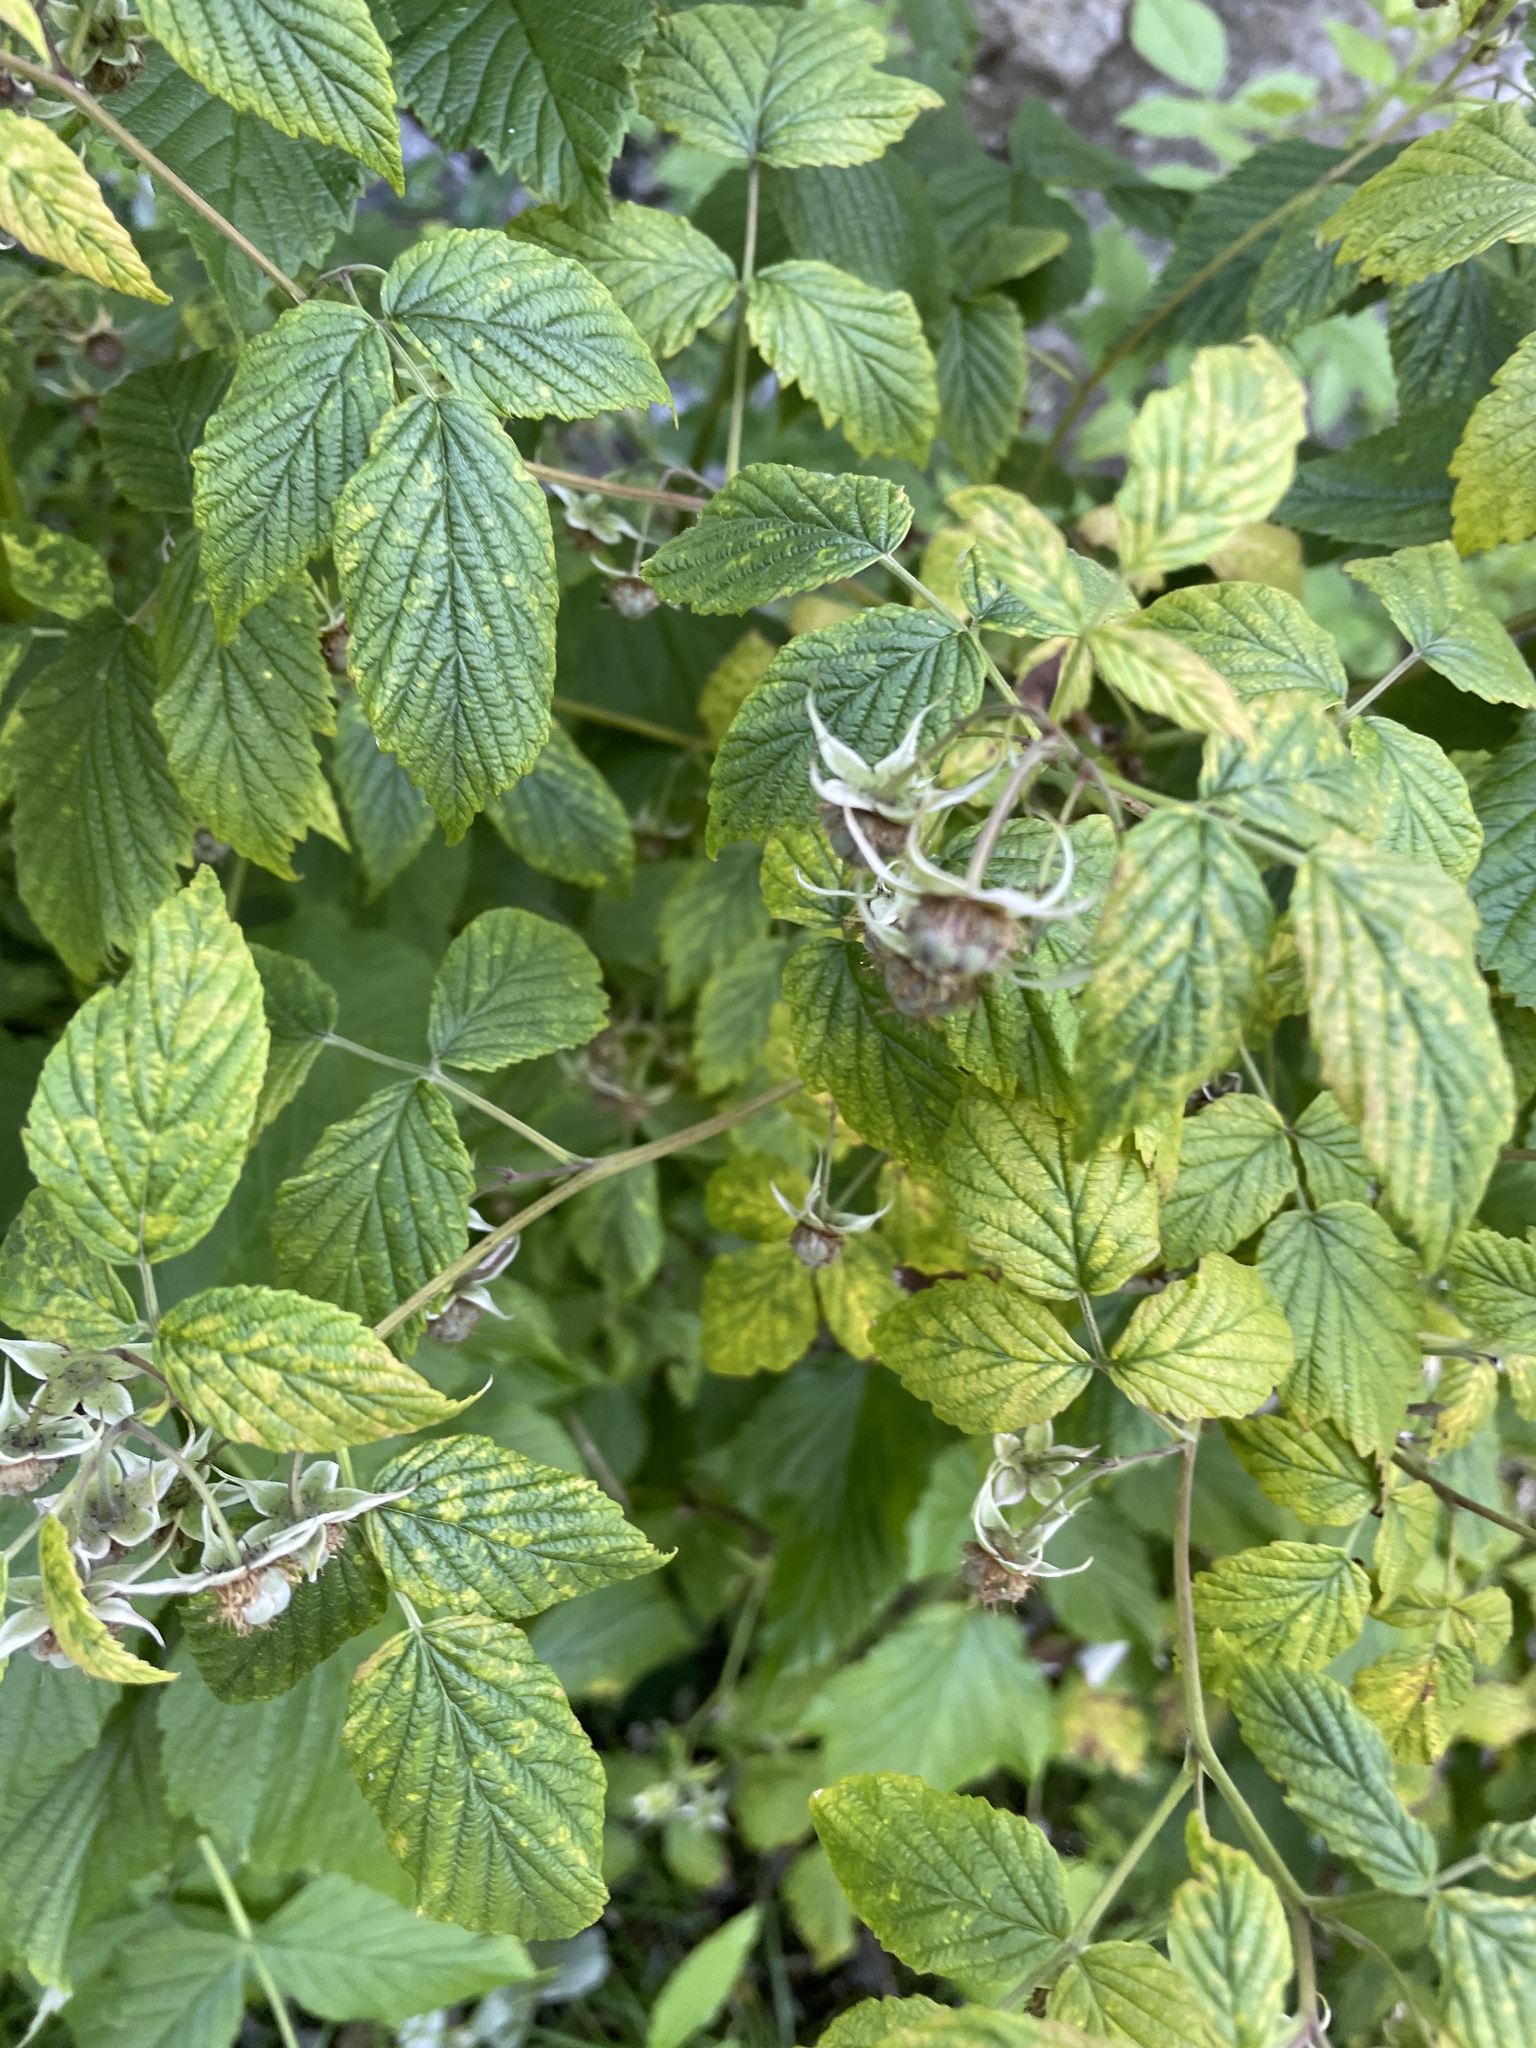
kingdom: Plantae
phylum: Tracheophyta
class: Magnoliopsida
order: Rosales
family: Rosaceae
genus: Rubus
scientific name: Rubus idaeus
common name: Raspberry
